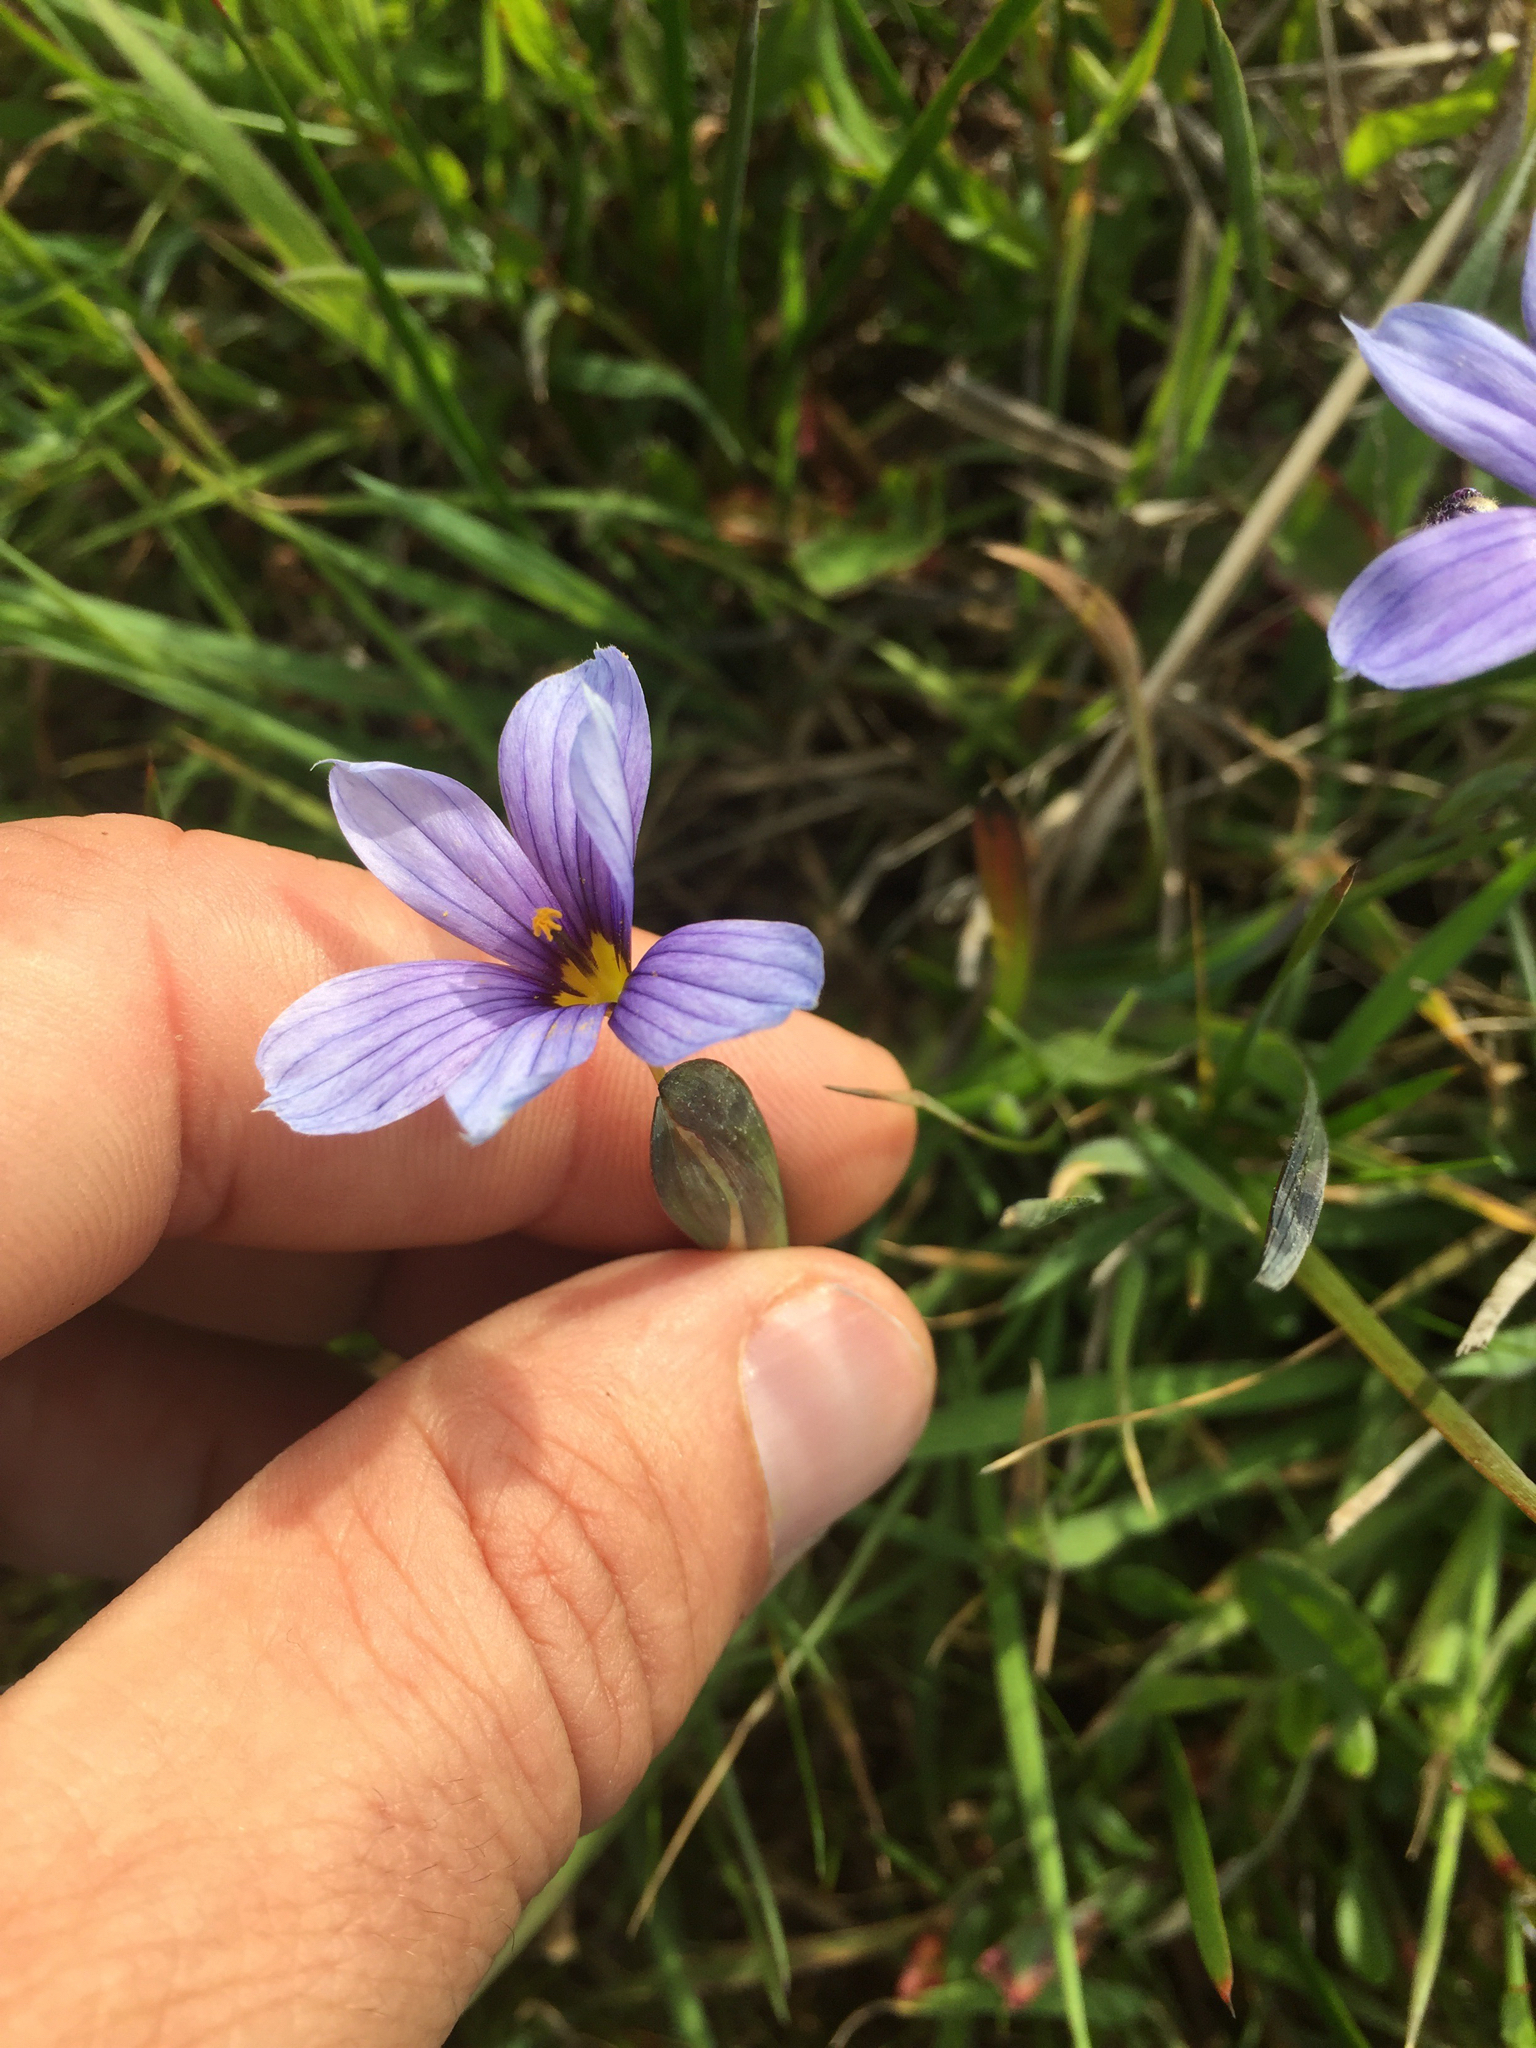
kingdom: Plantae
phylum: Tracheophyta
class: Liliopsida
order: Asparagales
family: Iridaceae
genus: Sisyrinchium
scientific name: Sisyrinchium bellum
